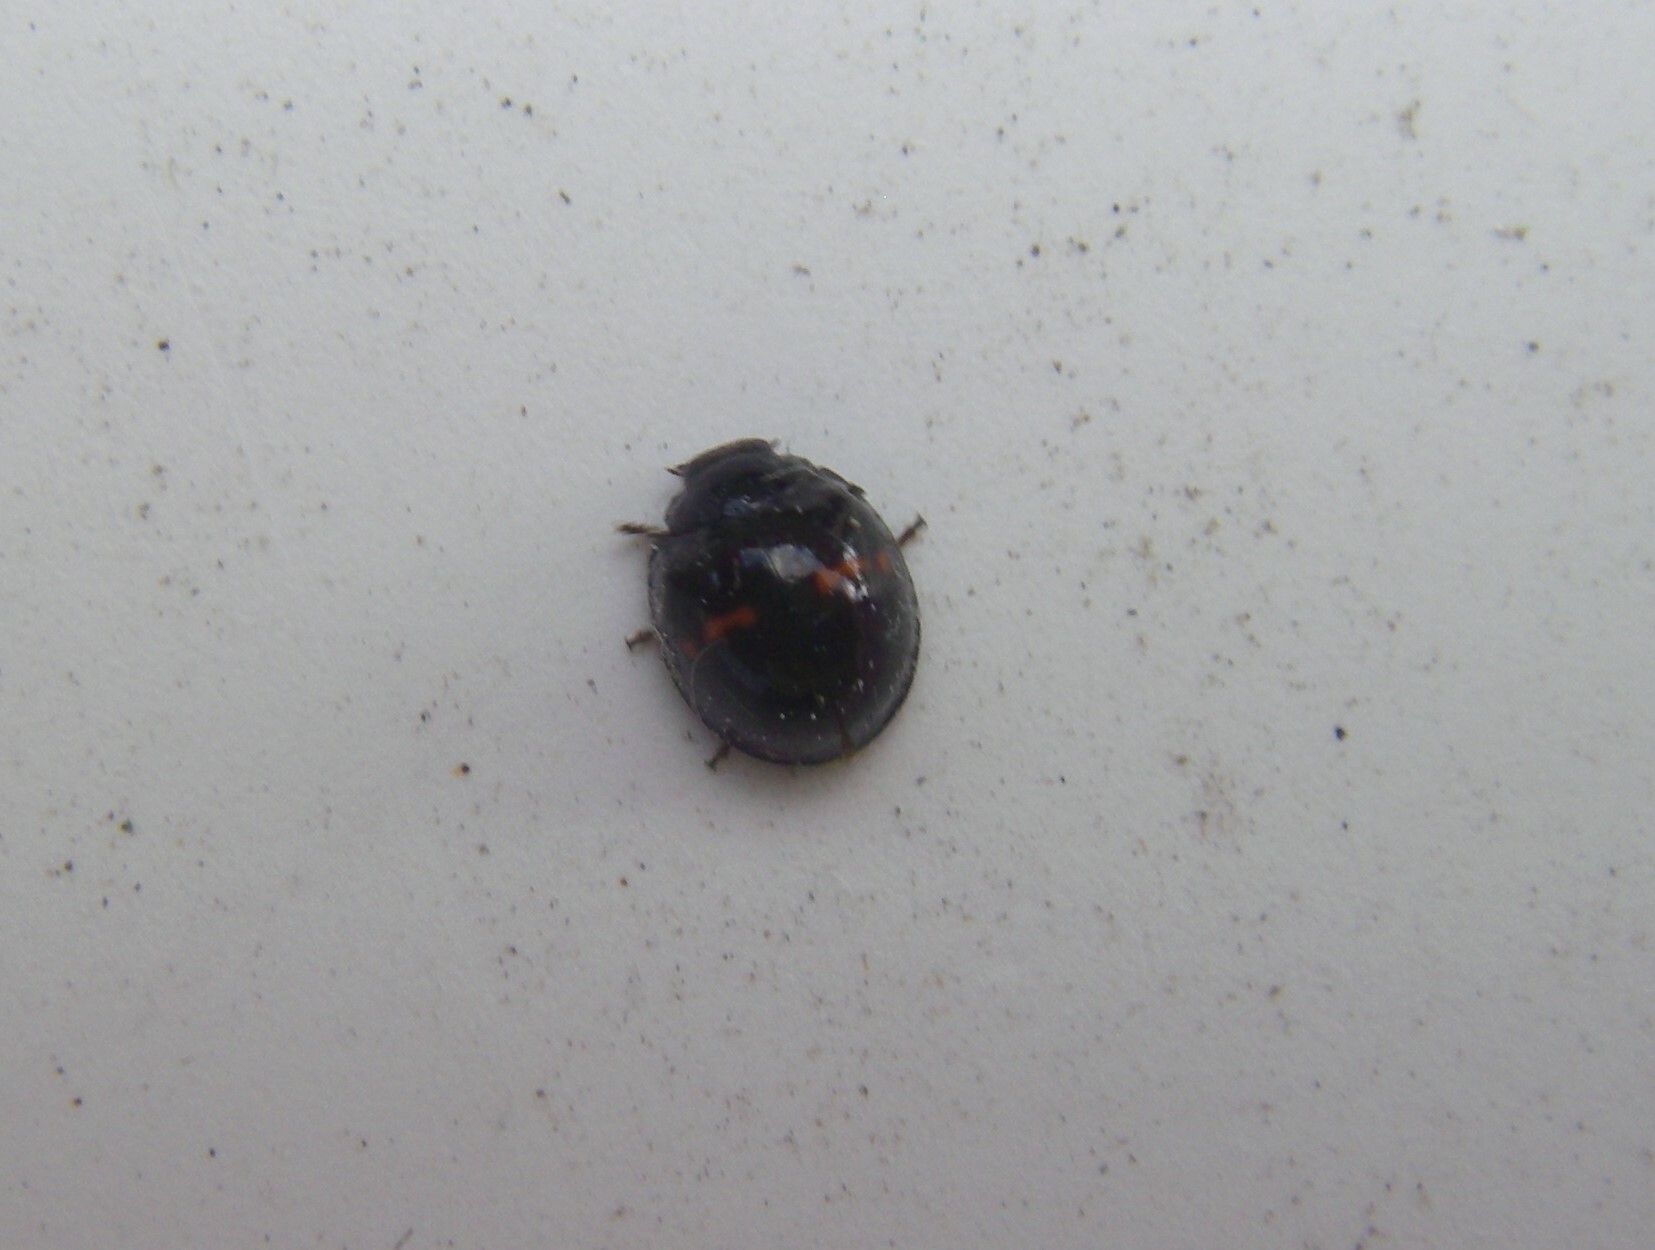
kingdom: Animalia
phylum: Arthropoda
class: Insecta
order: Coleoptera
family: Coccinellidae
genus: Chilocorus
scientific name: Chilocorus bipustulatus
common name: Heather ladybird
